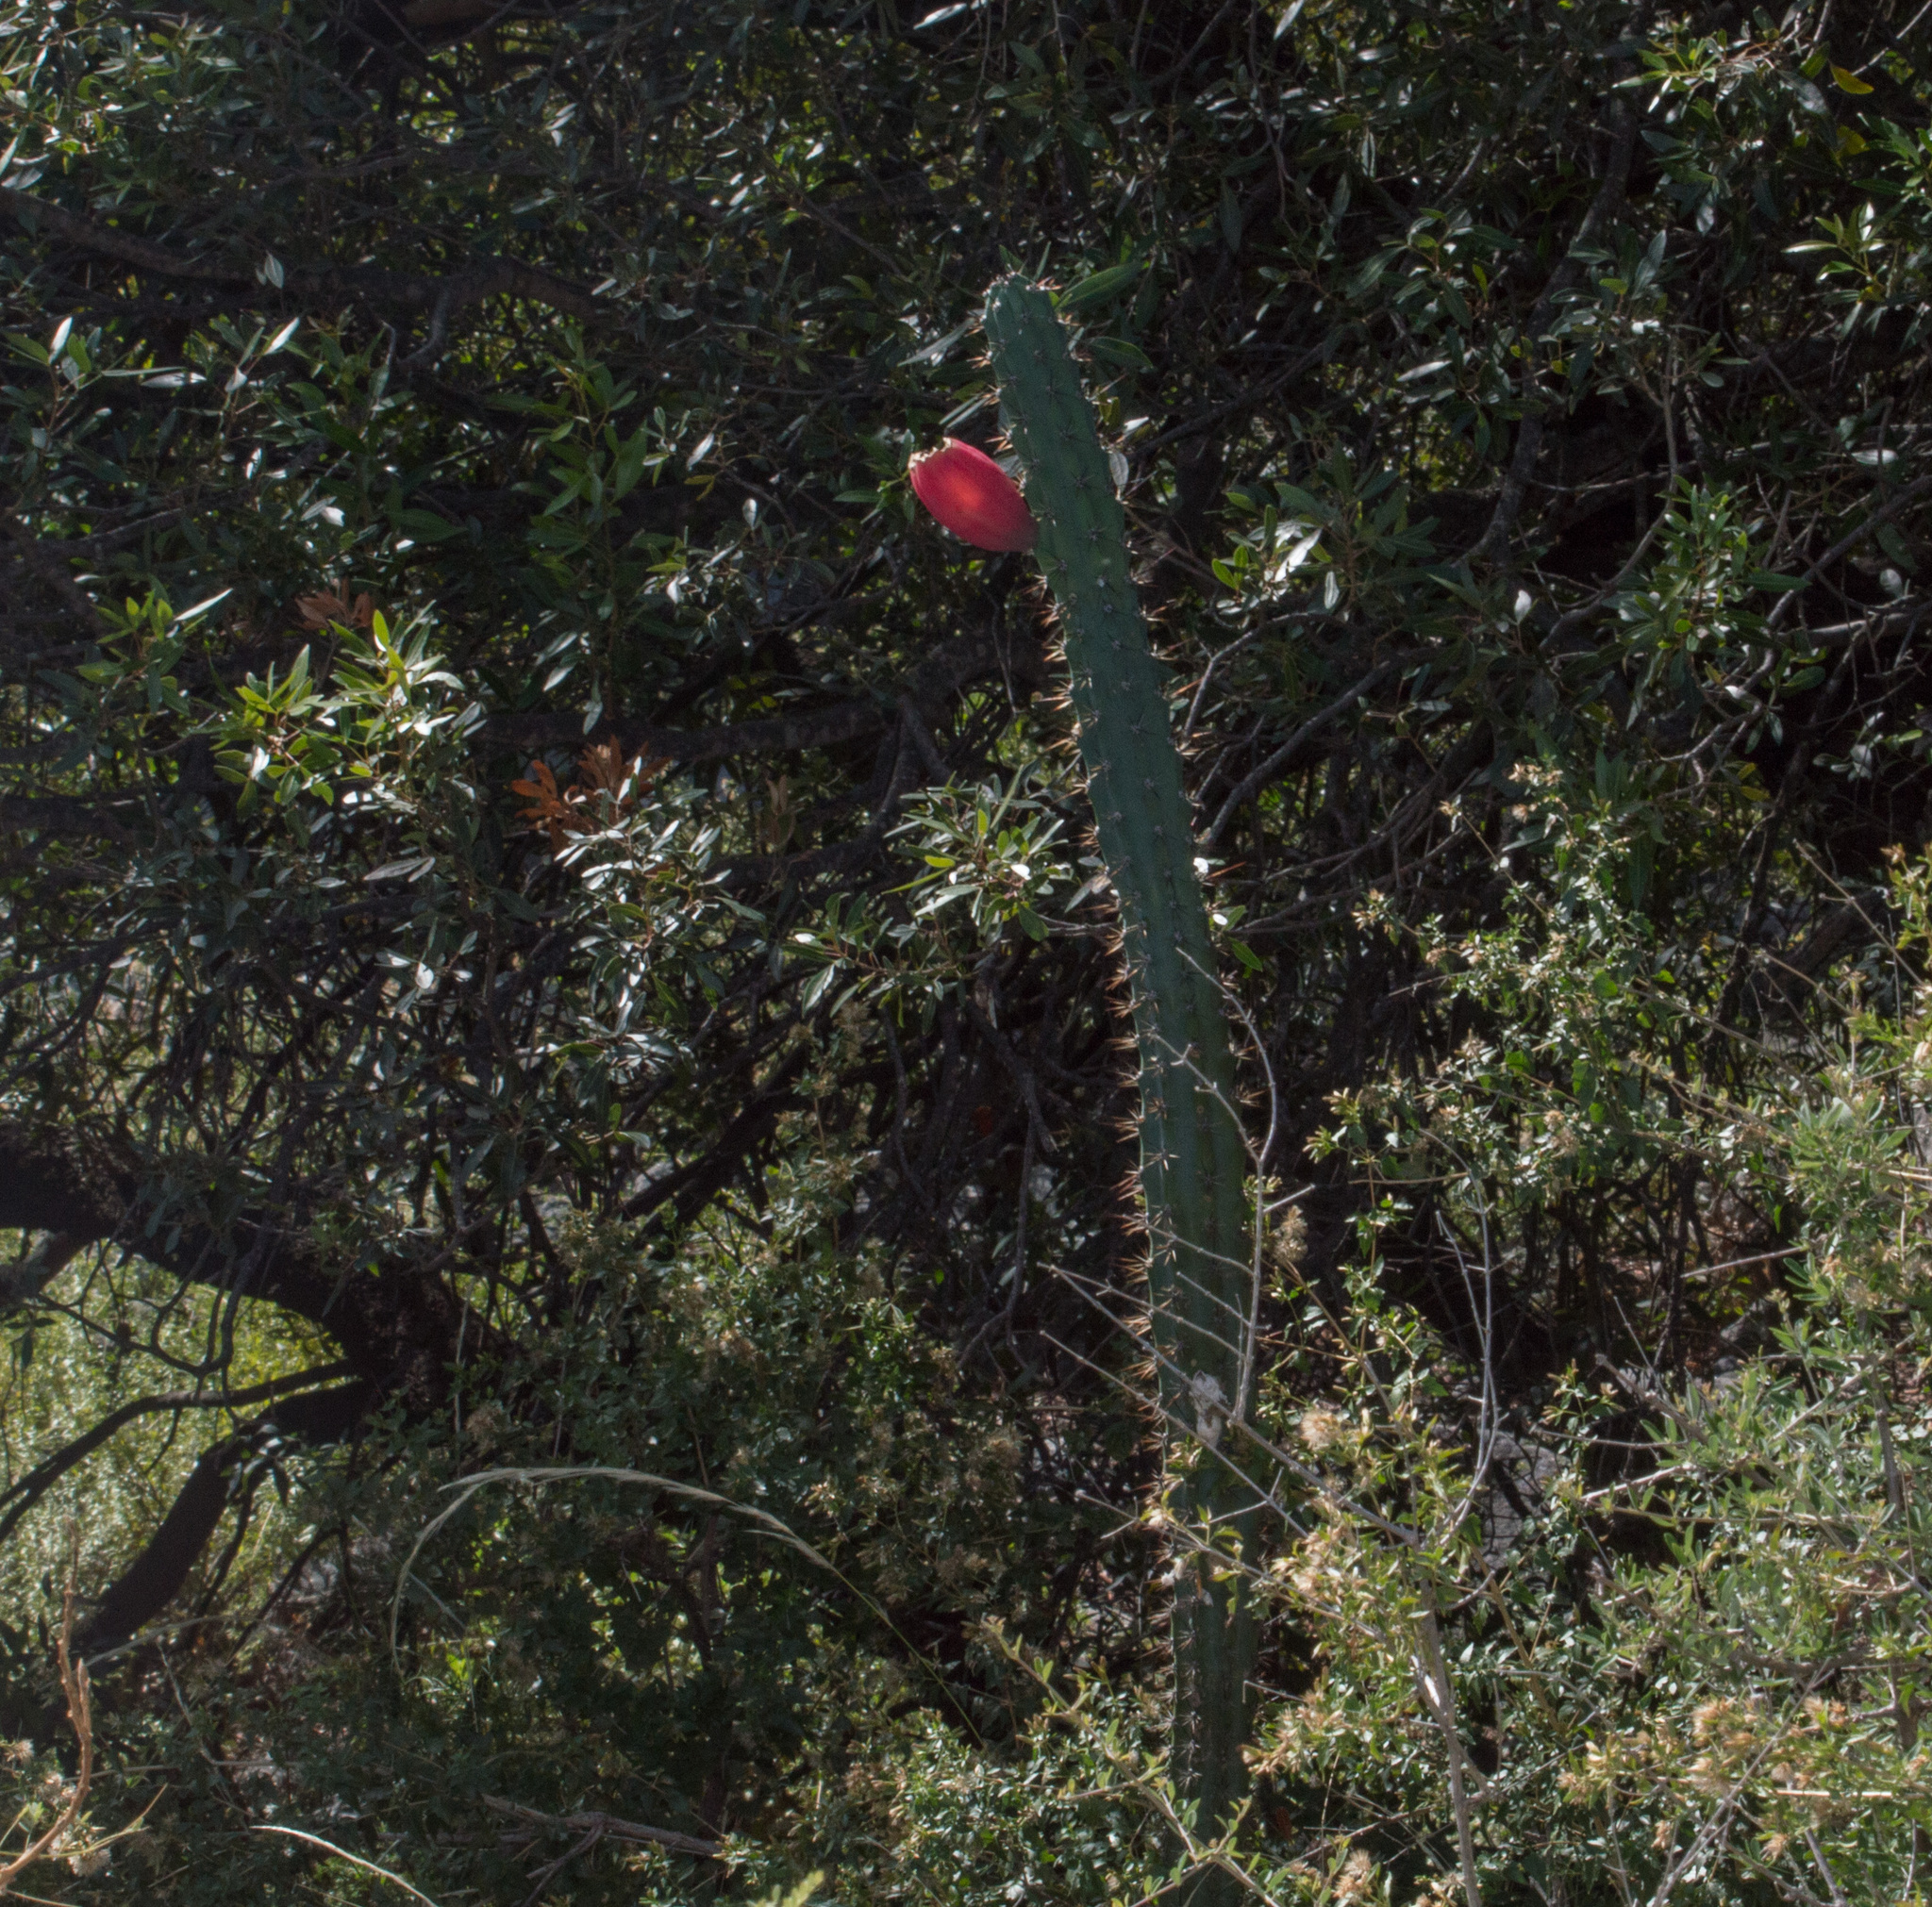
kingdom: Plantae
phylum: Tracheophyta
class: Magnoliopsida
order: Caryophyllales
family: Cactaceae
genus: Cereus
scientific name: Cereus aethiops
